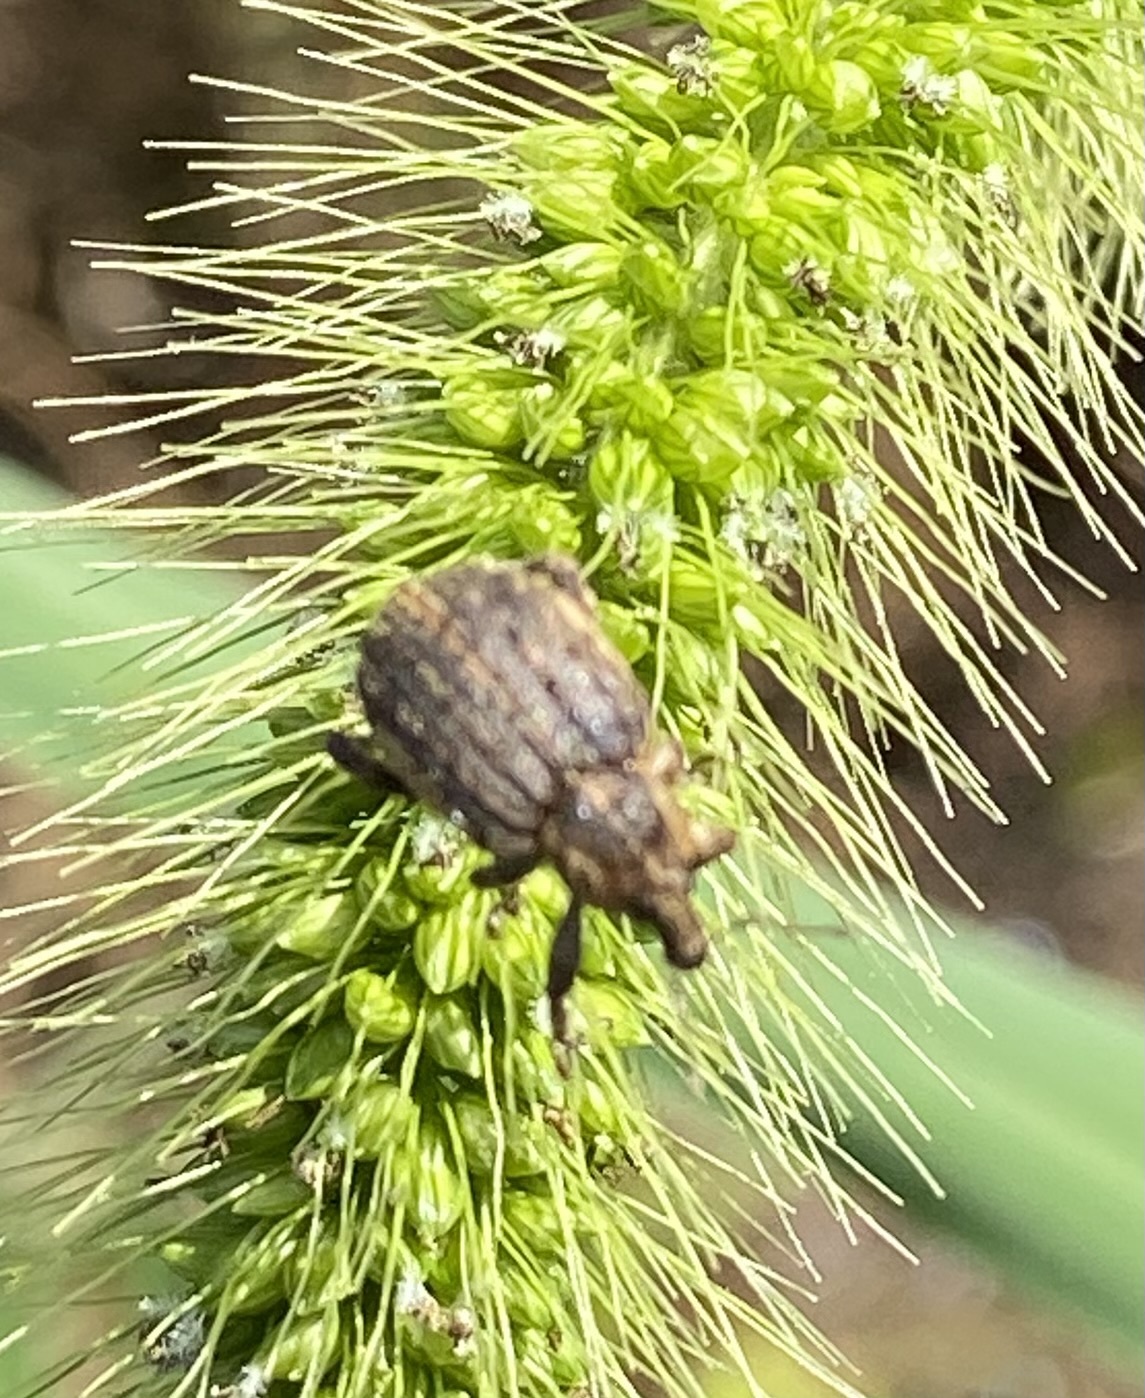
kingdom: Animalia
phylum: Arthropoda
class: Insecta
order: Coleoptera
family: Curculionidae
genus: Brachypera
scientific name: Brachypera zoilus
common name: Clover leaf weevil
